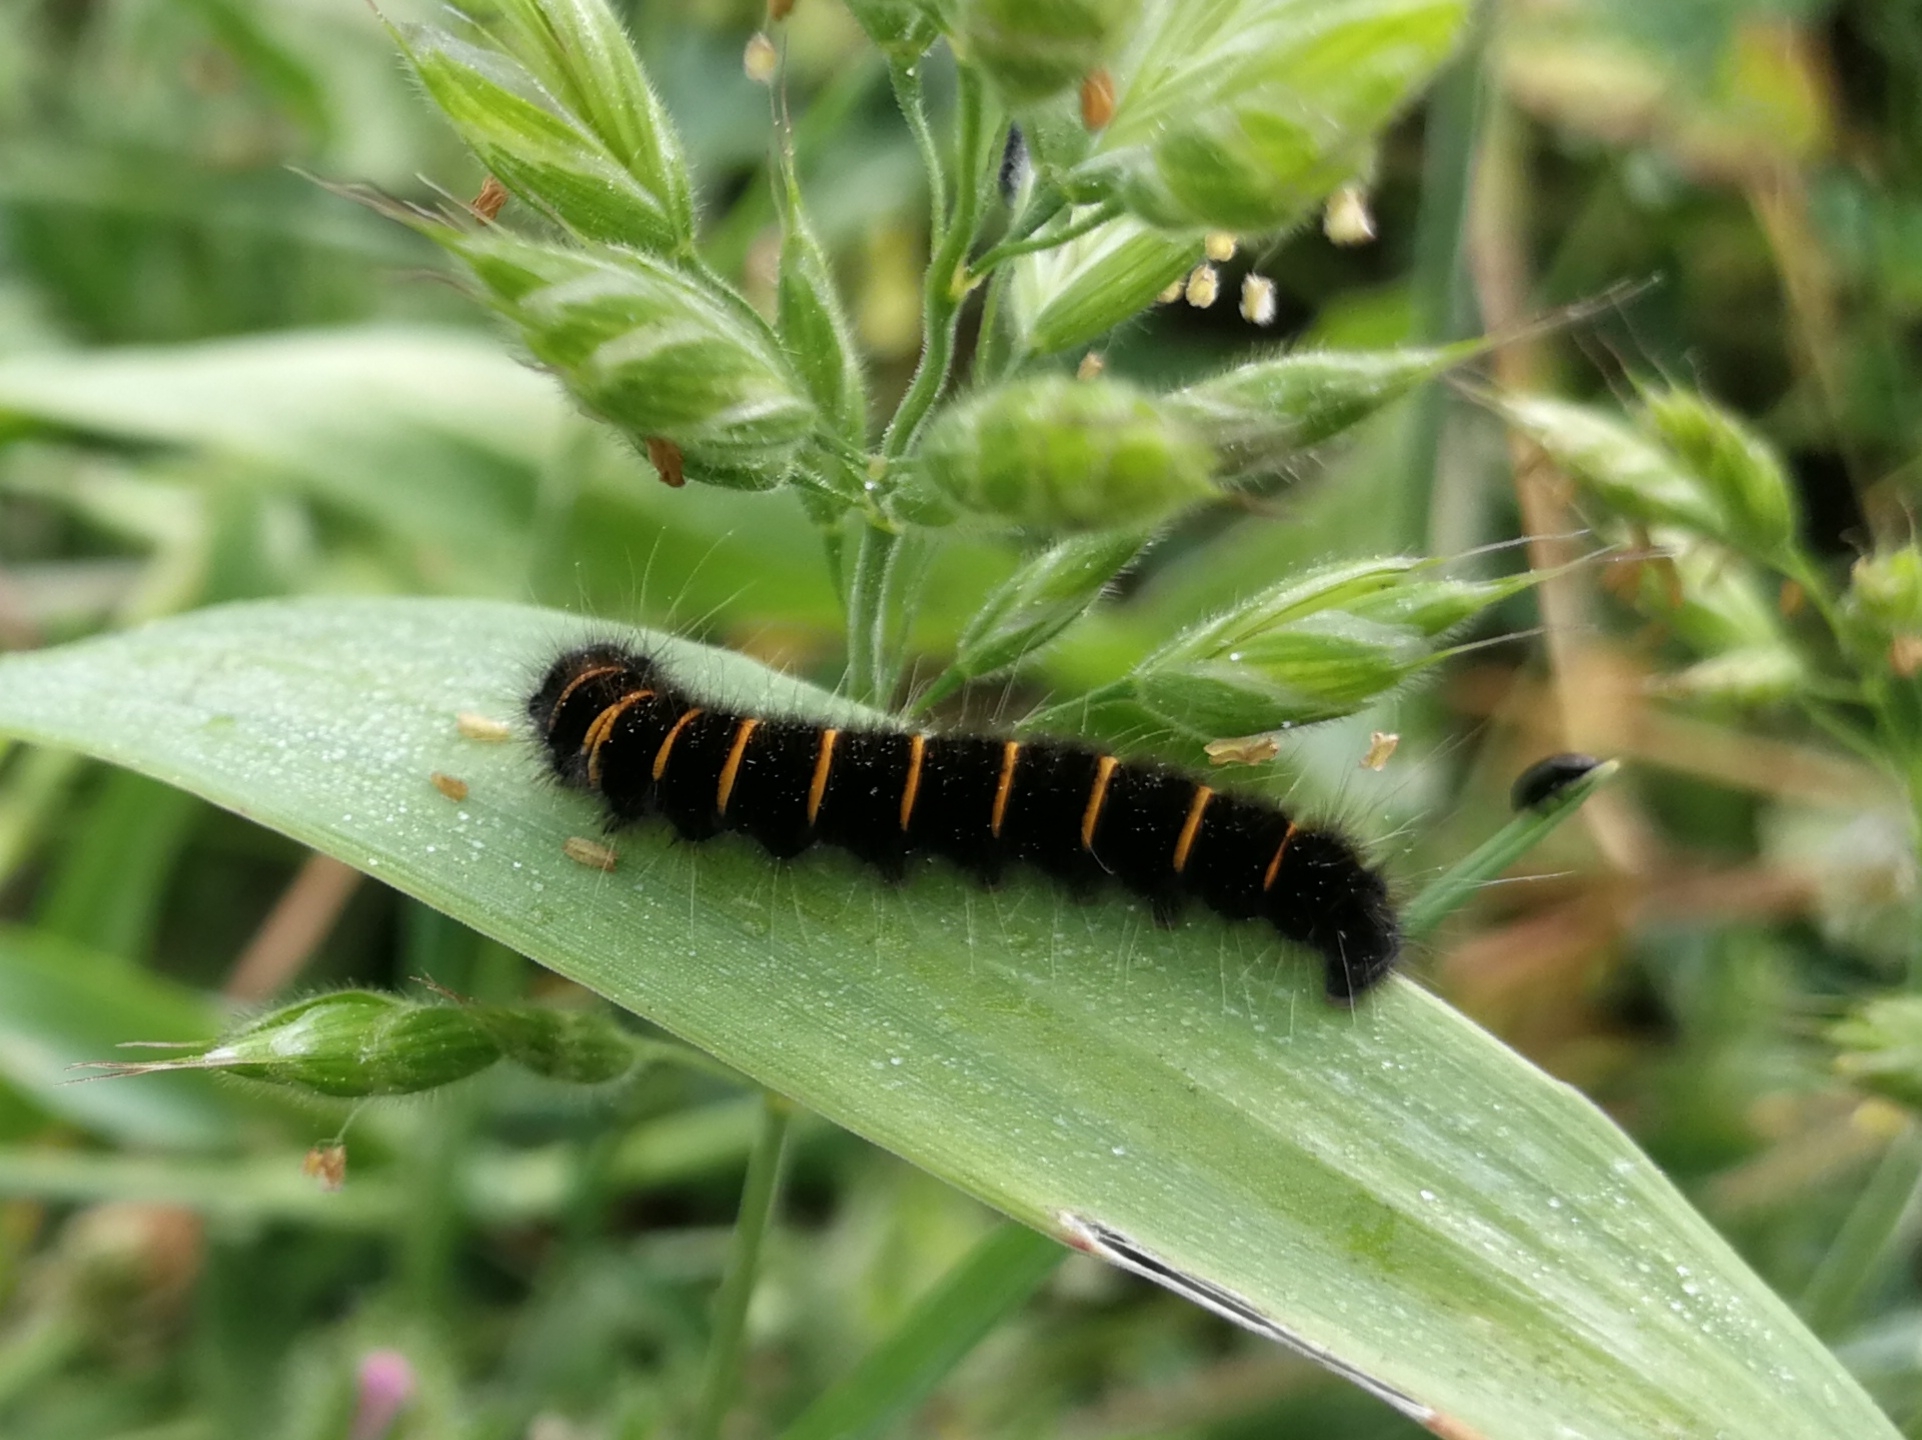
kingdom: Animalia
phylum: Arthropoda
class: Insecta
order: Lepidoptera
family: Lasiocampidae
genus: Macrothylacia
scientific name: Macrothylacia rubi
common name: Fox moth
